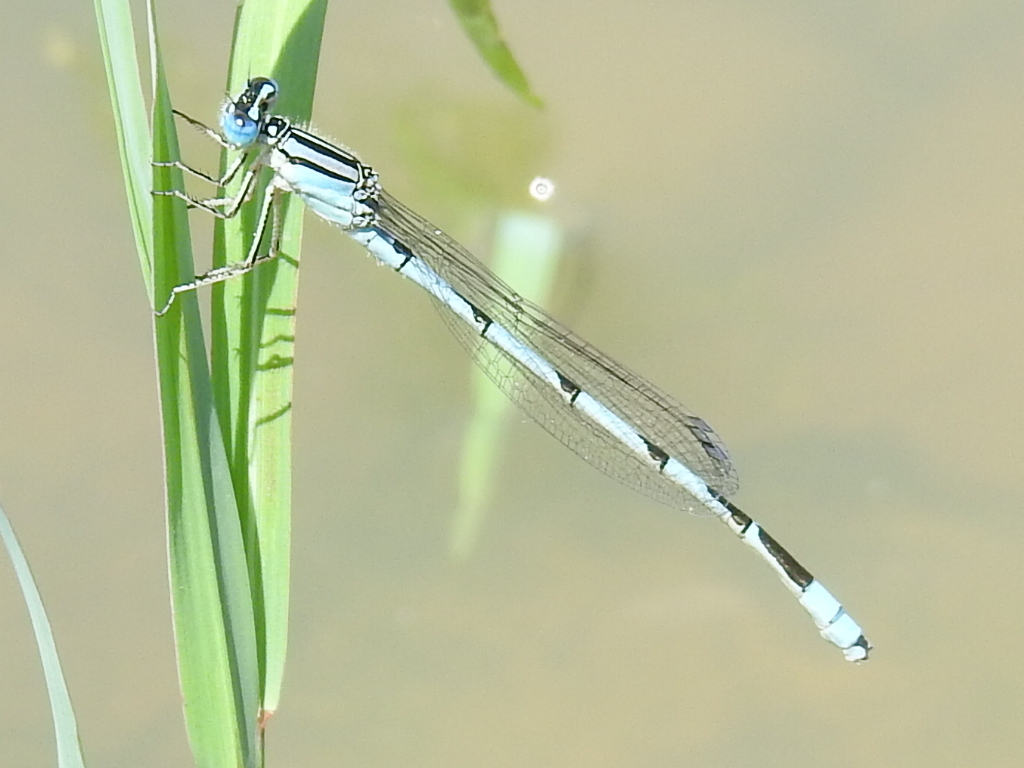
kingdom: Animalia
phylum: Arthropoda
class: Insecta
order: Odonata
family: Coenagrionidae
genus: Enallagma
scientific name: Enallagma durum
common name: Big bluet
